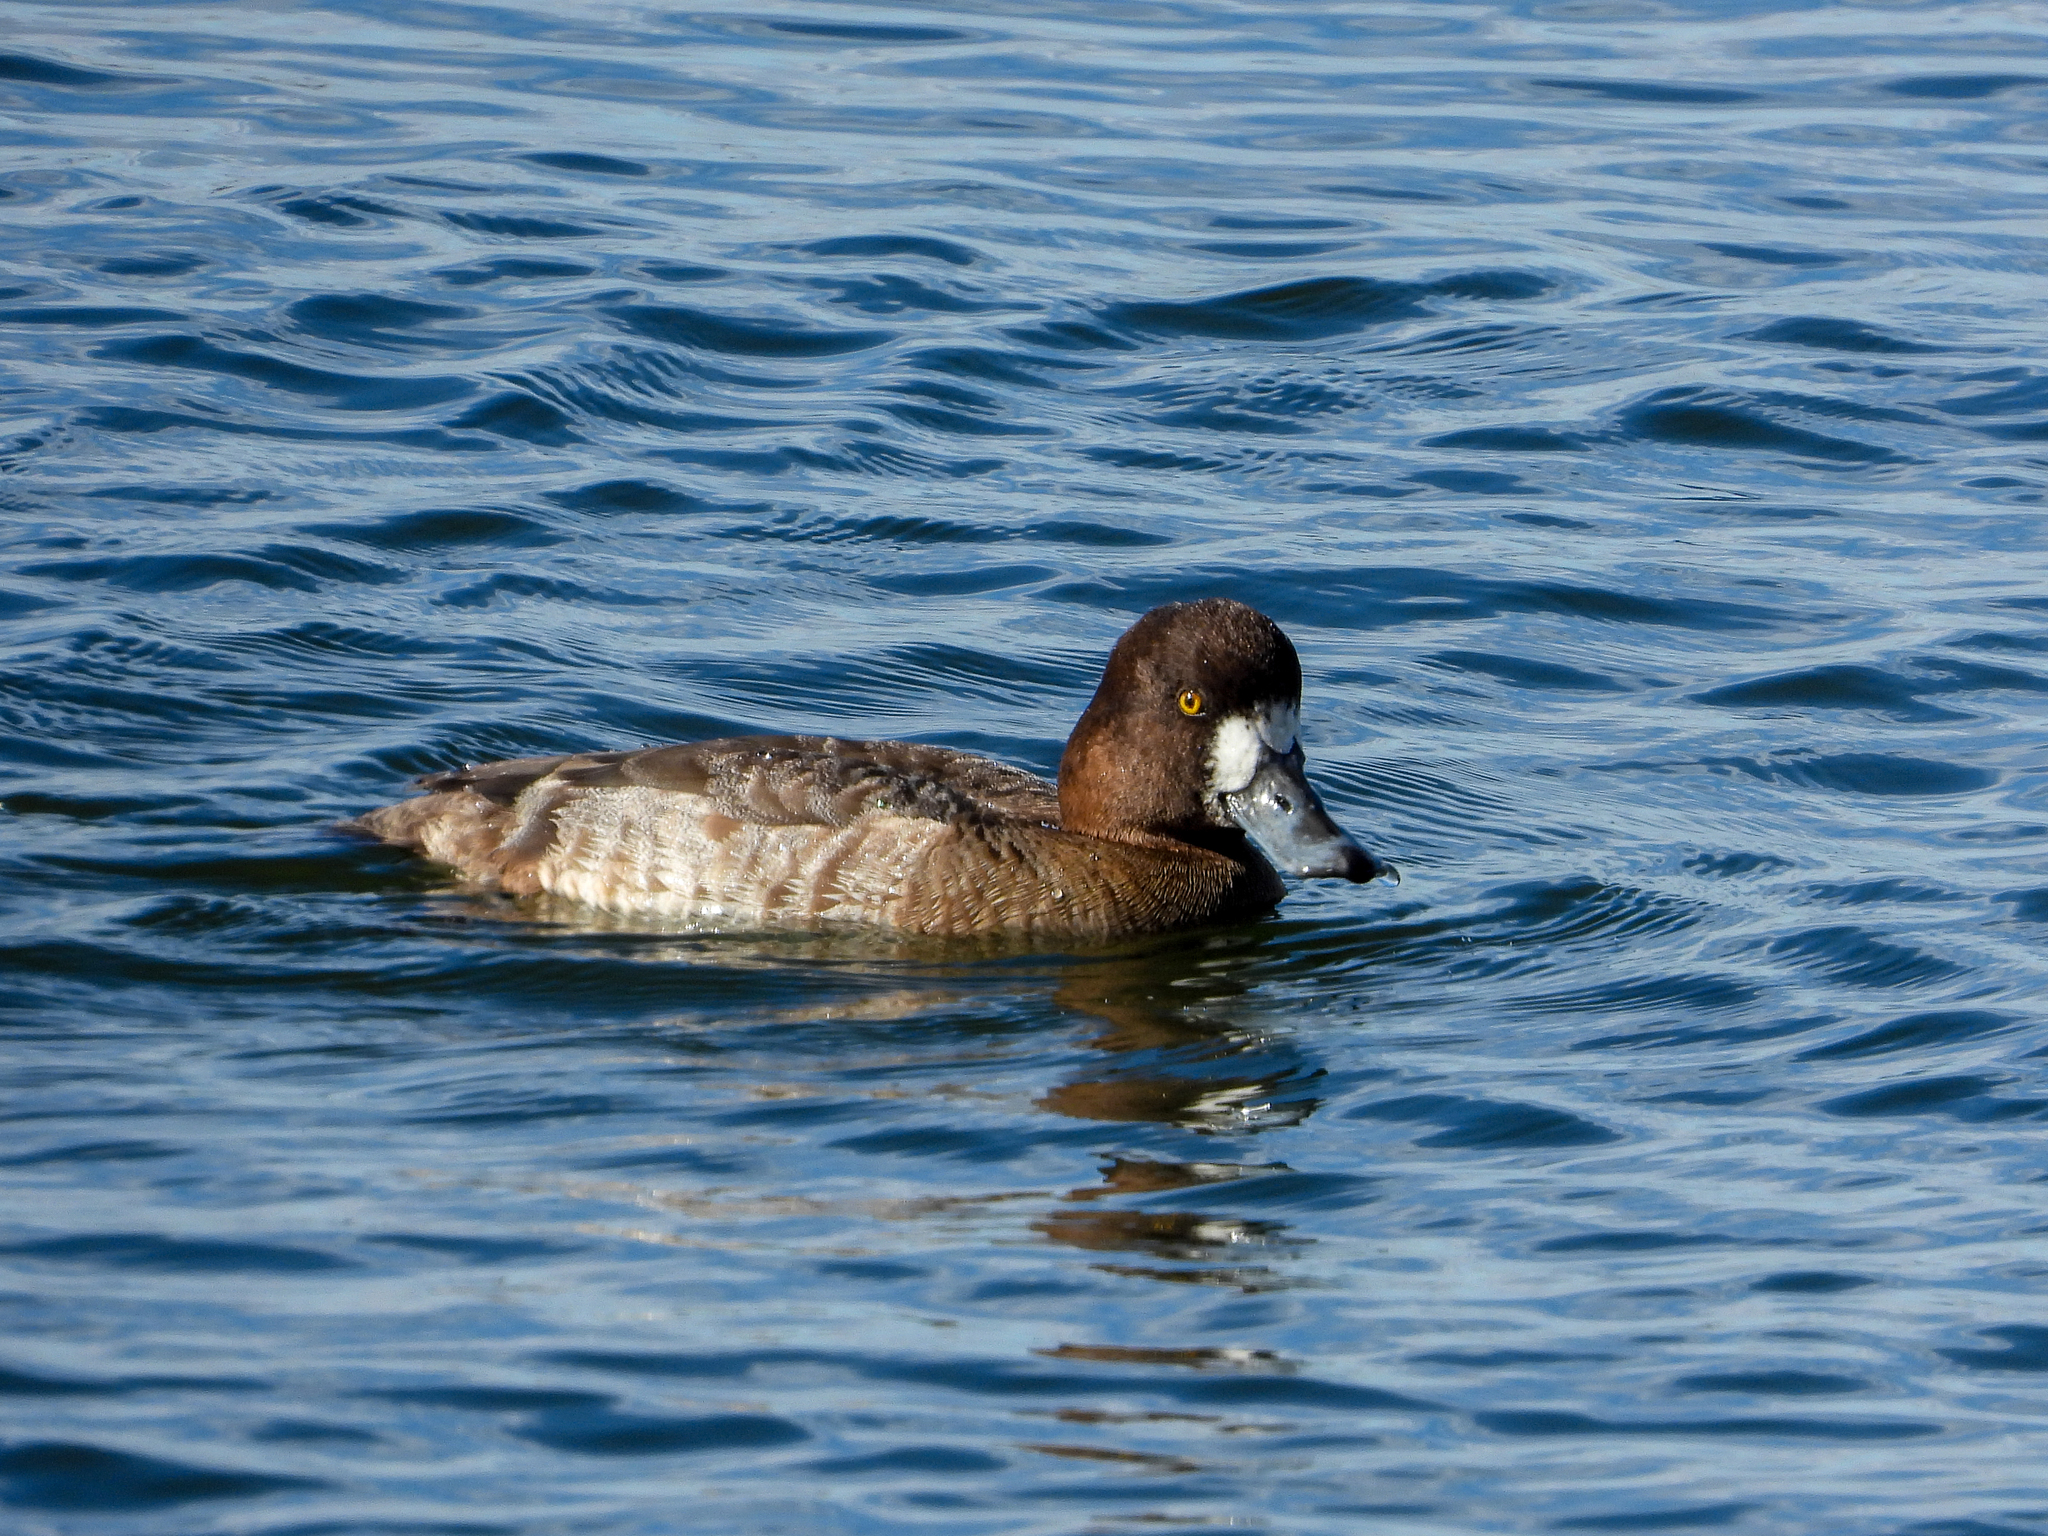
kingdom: Animalia
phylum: Chordata
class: Aves
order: Anseriformes
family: Anatidae
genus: Aythya
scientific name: Aythya marila
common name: Greater scaup
